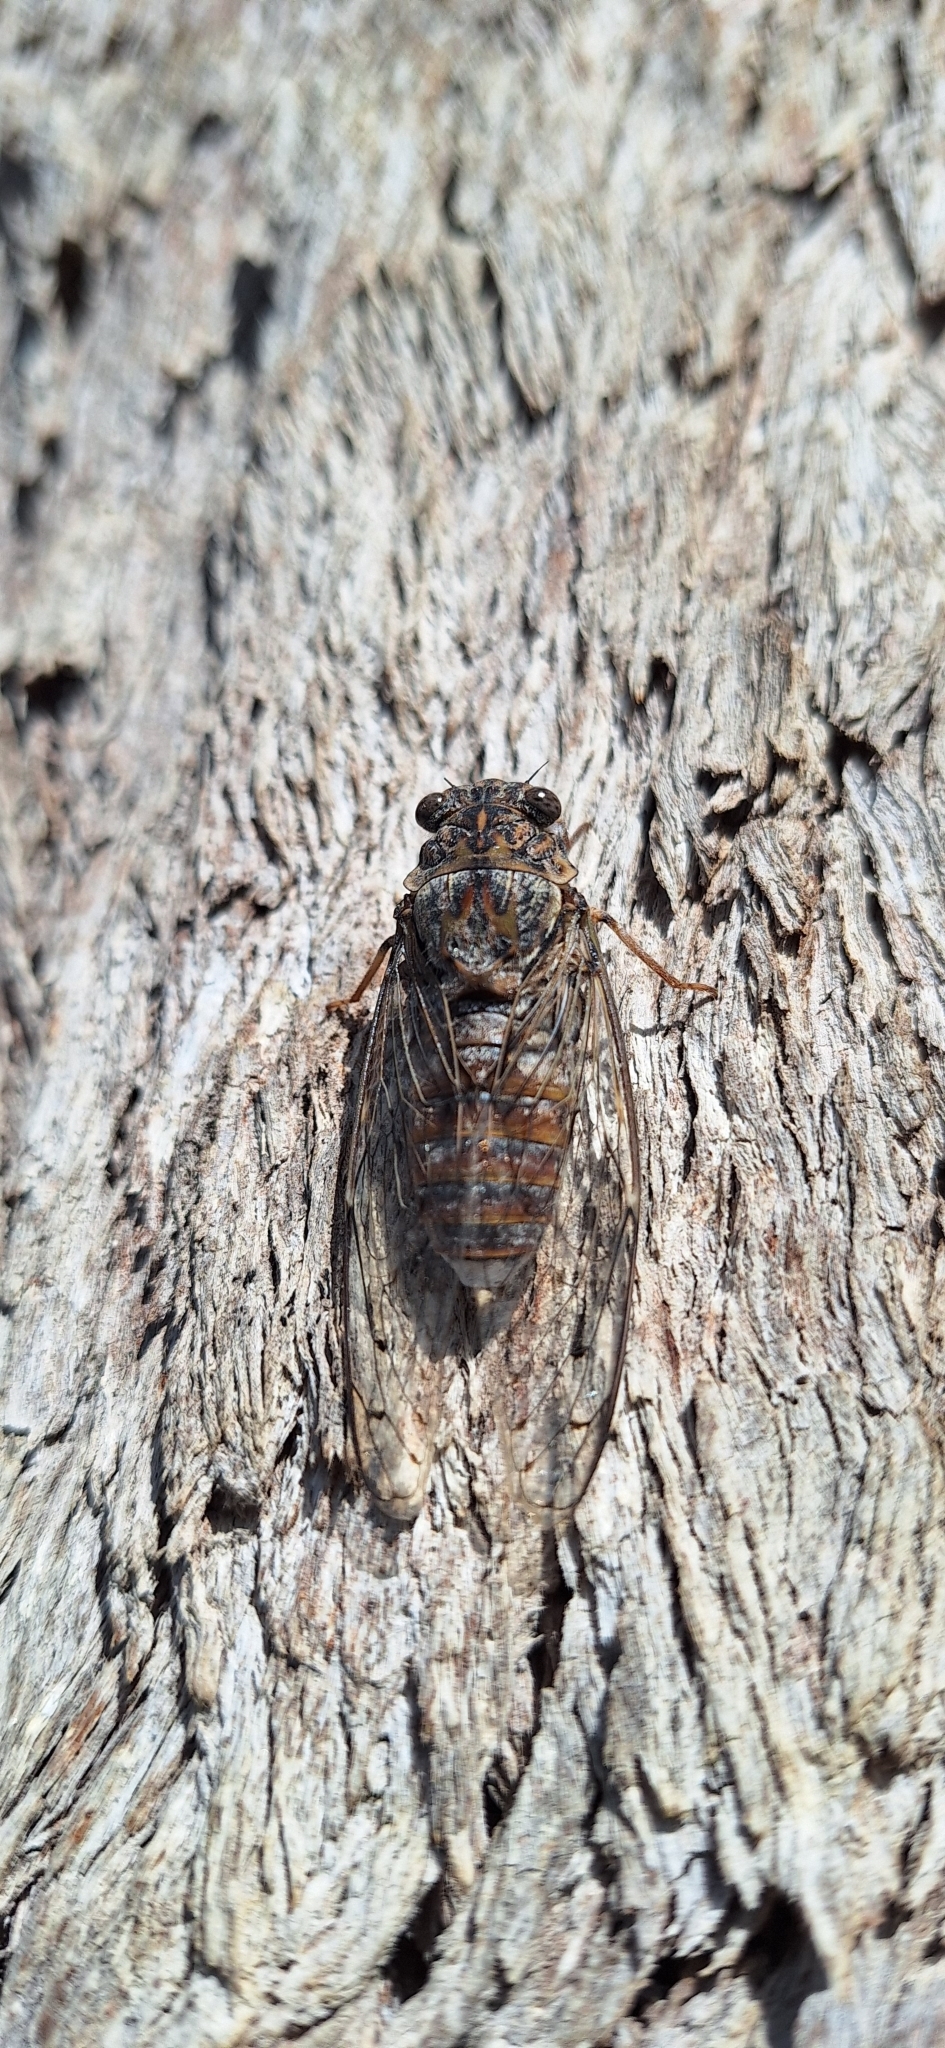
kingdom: Animalia
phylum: Arthropoda
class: Insecta
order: Hemiptera
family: Cicadidae
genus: Cicada
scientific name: Cicada cretensis
